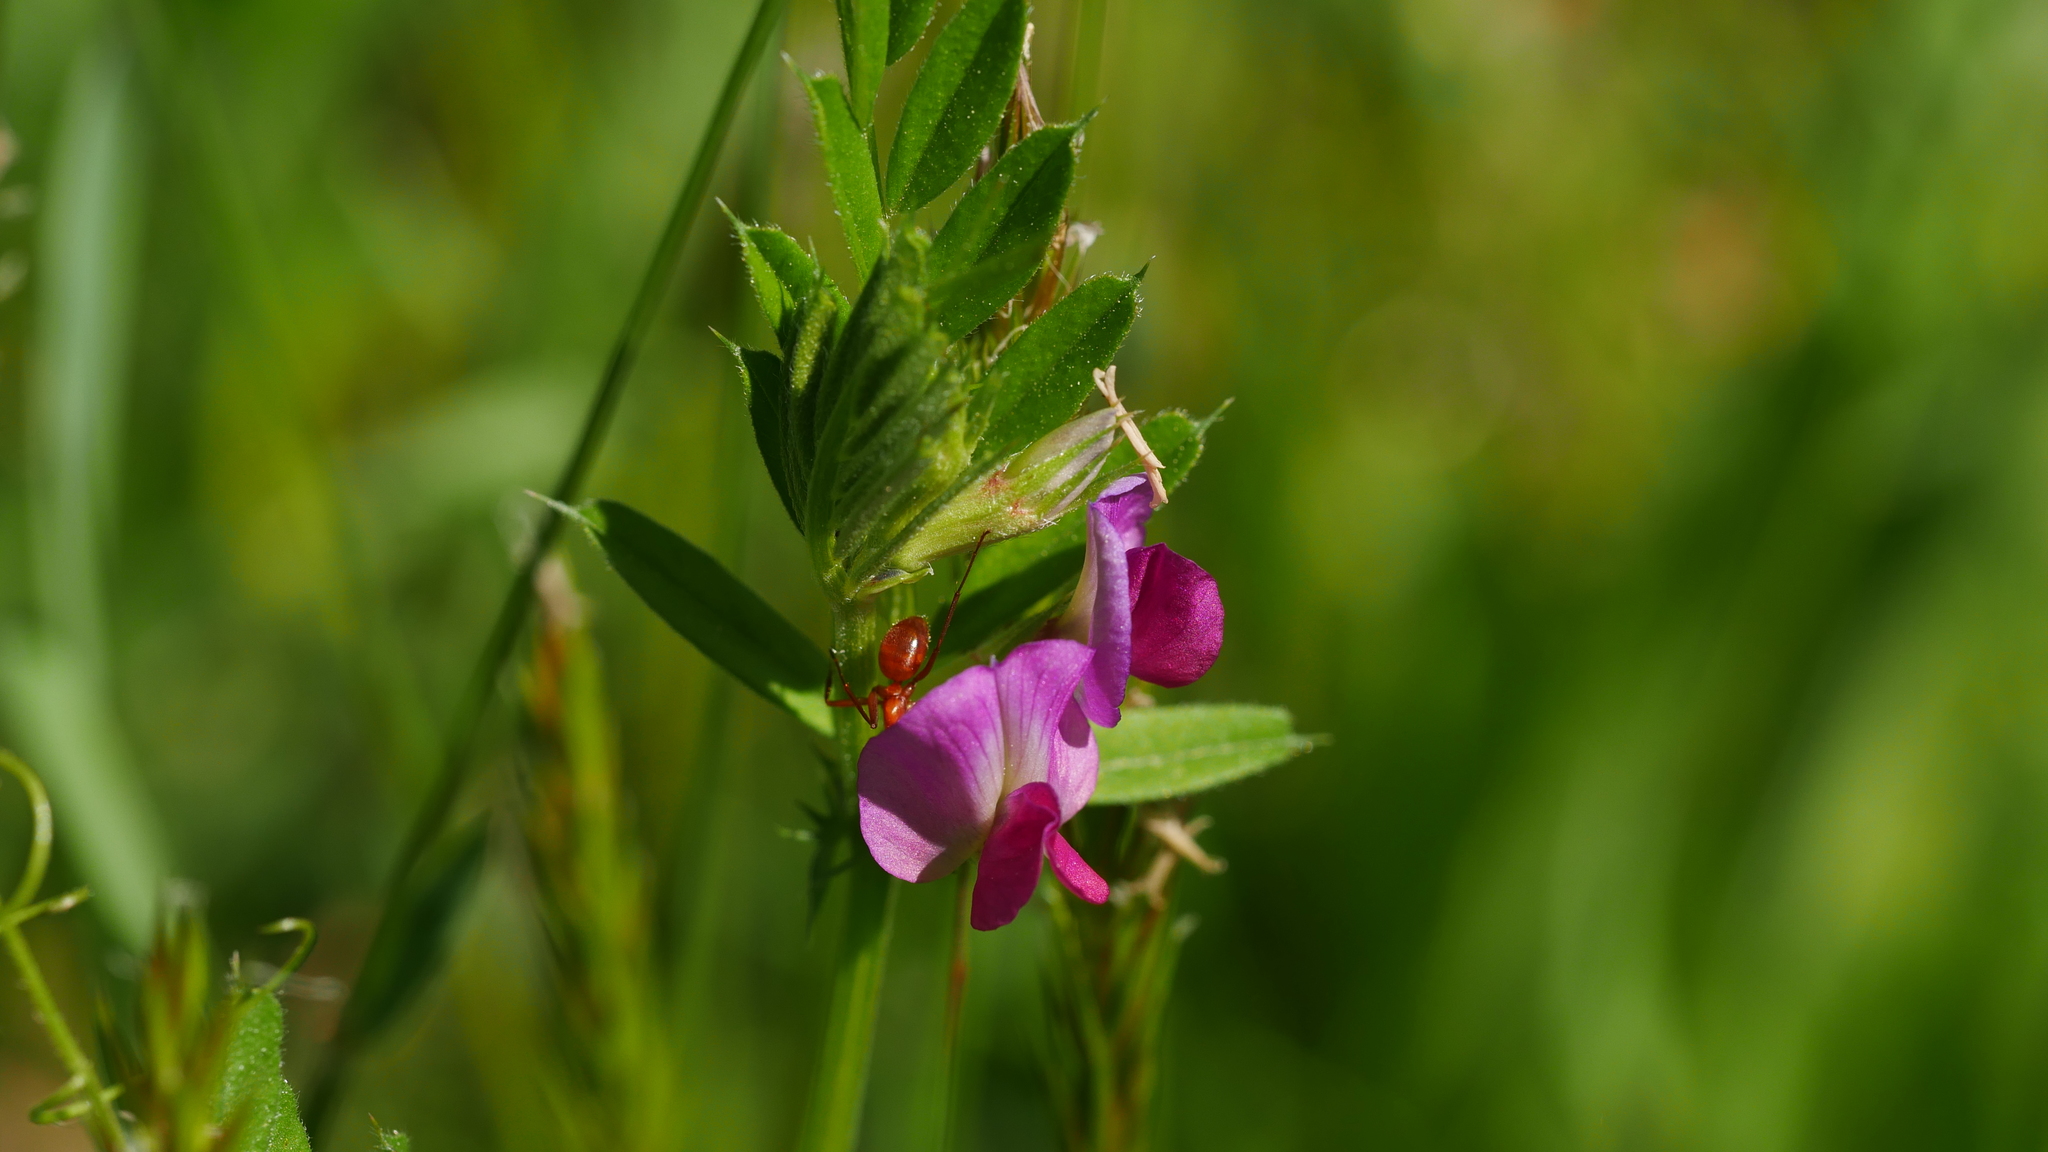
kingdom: Plantae
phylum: Tracheophyta
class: Magnoliopsida
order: Fabales
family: Fabaceae
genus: Vicia
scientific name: Vicia sativa
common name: Garden vetch
